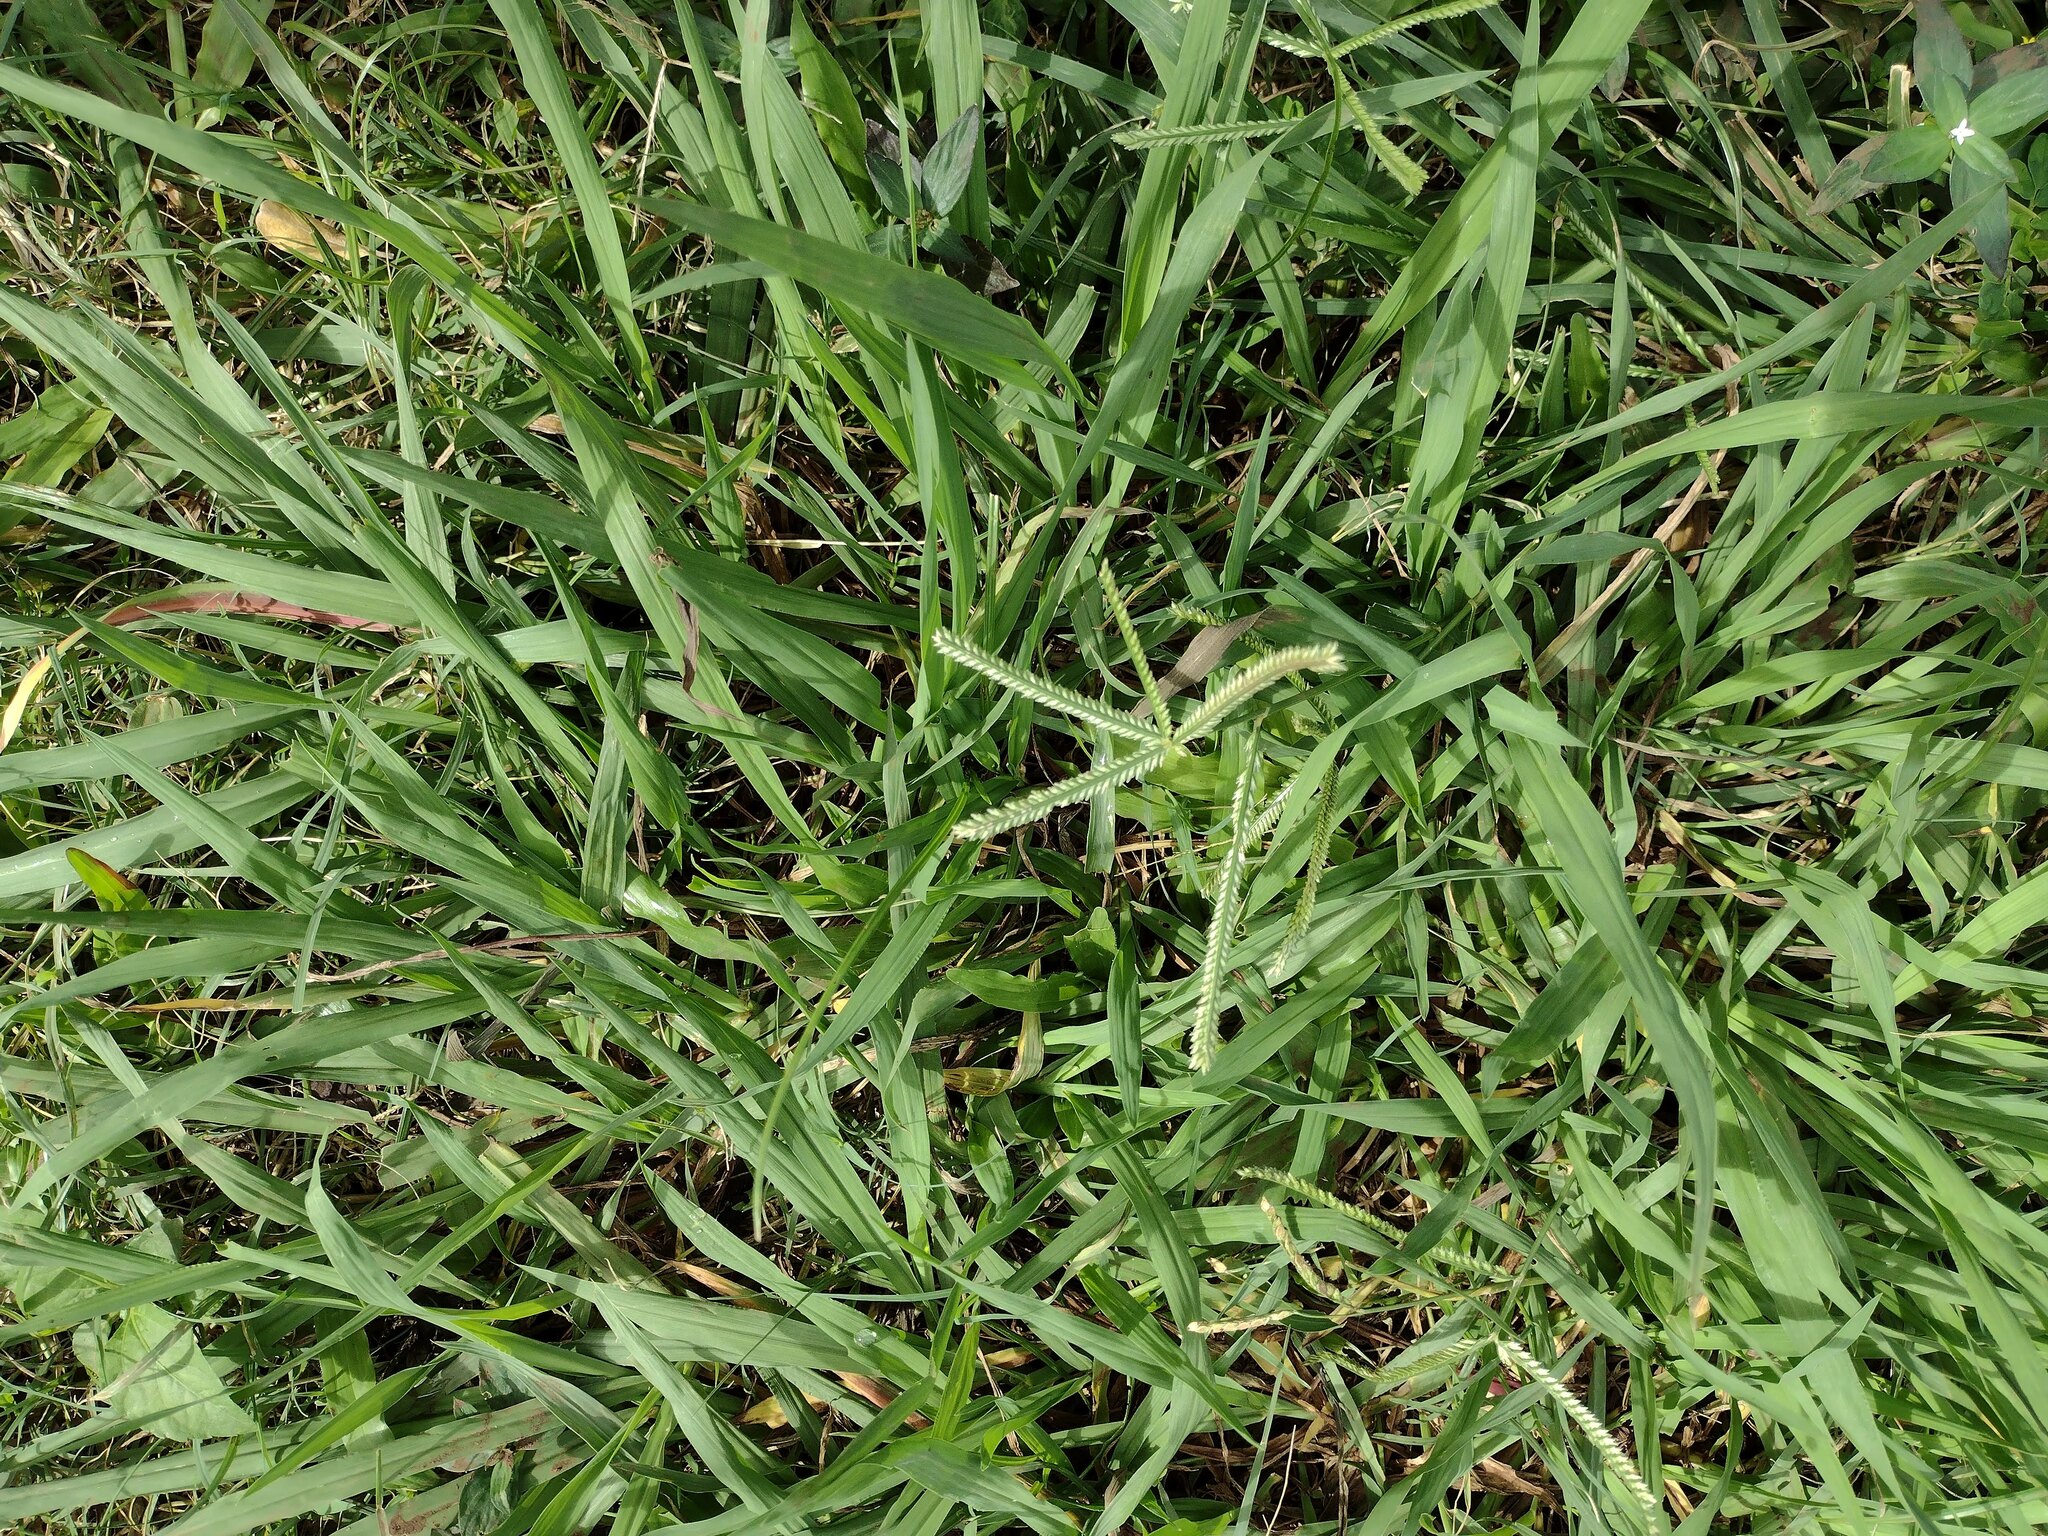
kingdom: Plantae
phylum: Tracheophyta
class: Liliopsida
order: Poales
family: Poaceae
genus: Eleusine
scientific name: Eleusine indica
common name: Yard-grass
